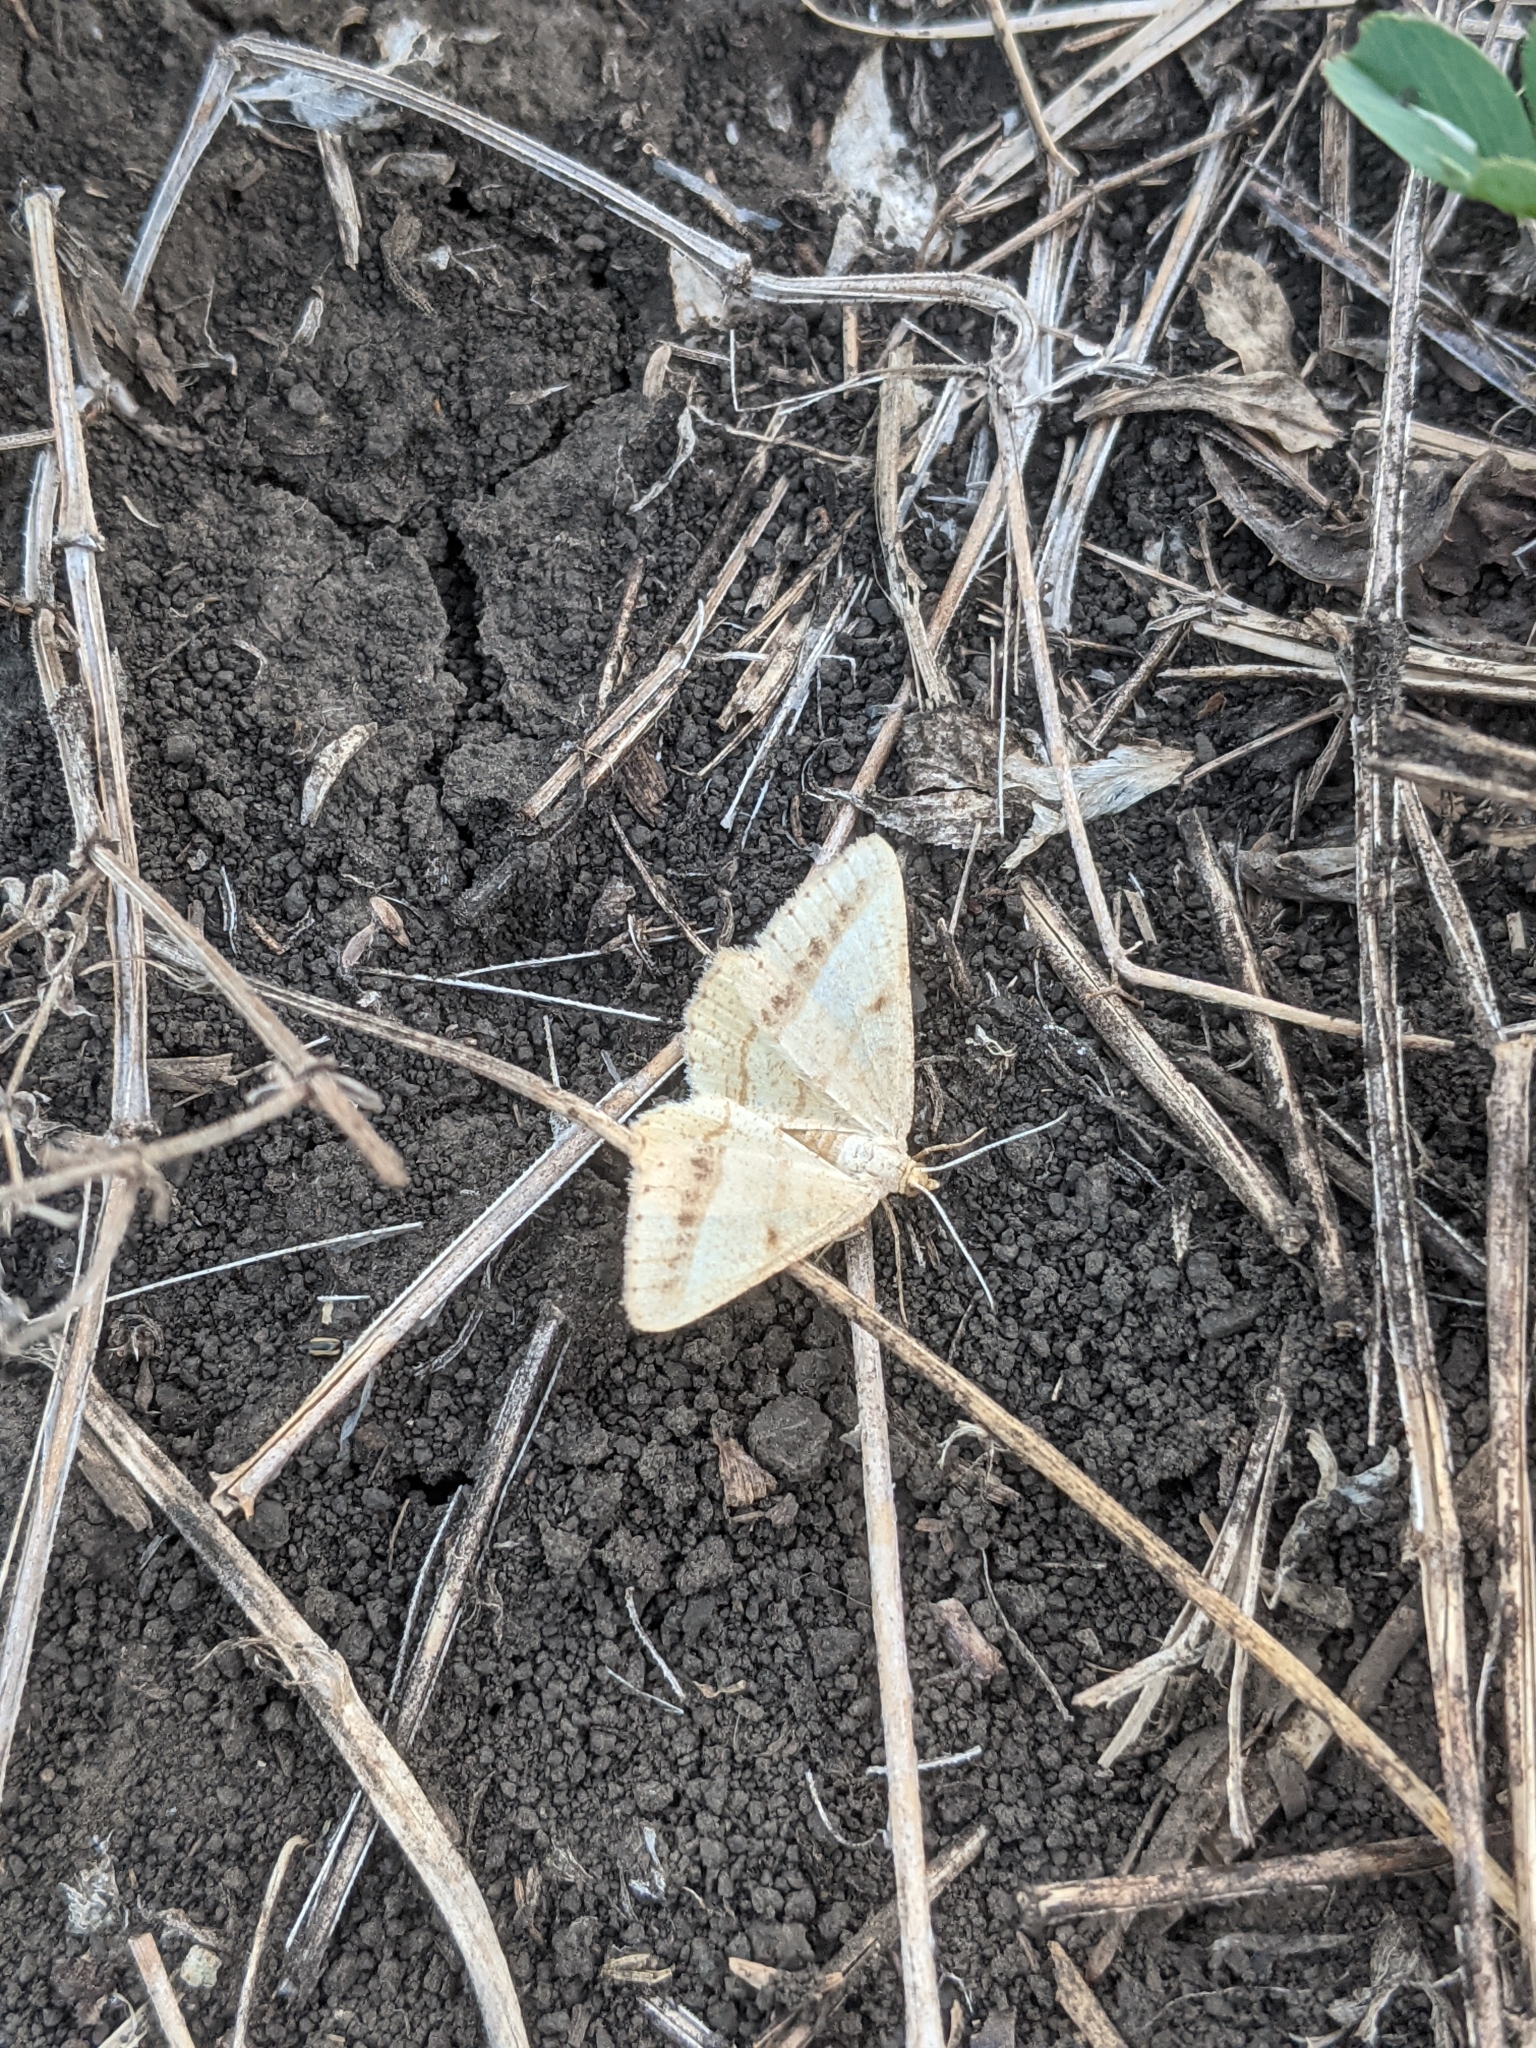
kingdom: Animalia
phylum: Arthropoda
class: Insecta
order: Lepidoptera
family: Geometridae
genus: Tephrina
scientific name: Tephrina arenacearia
